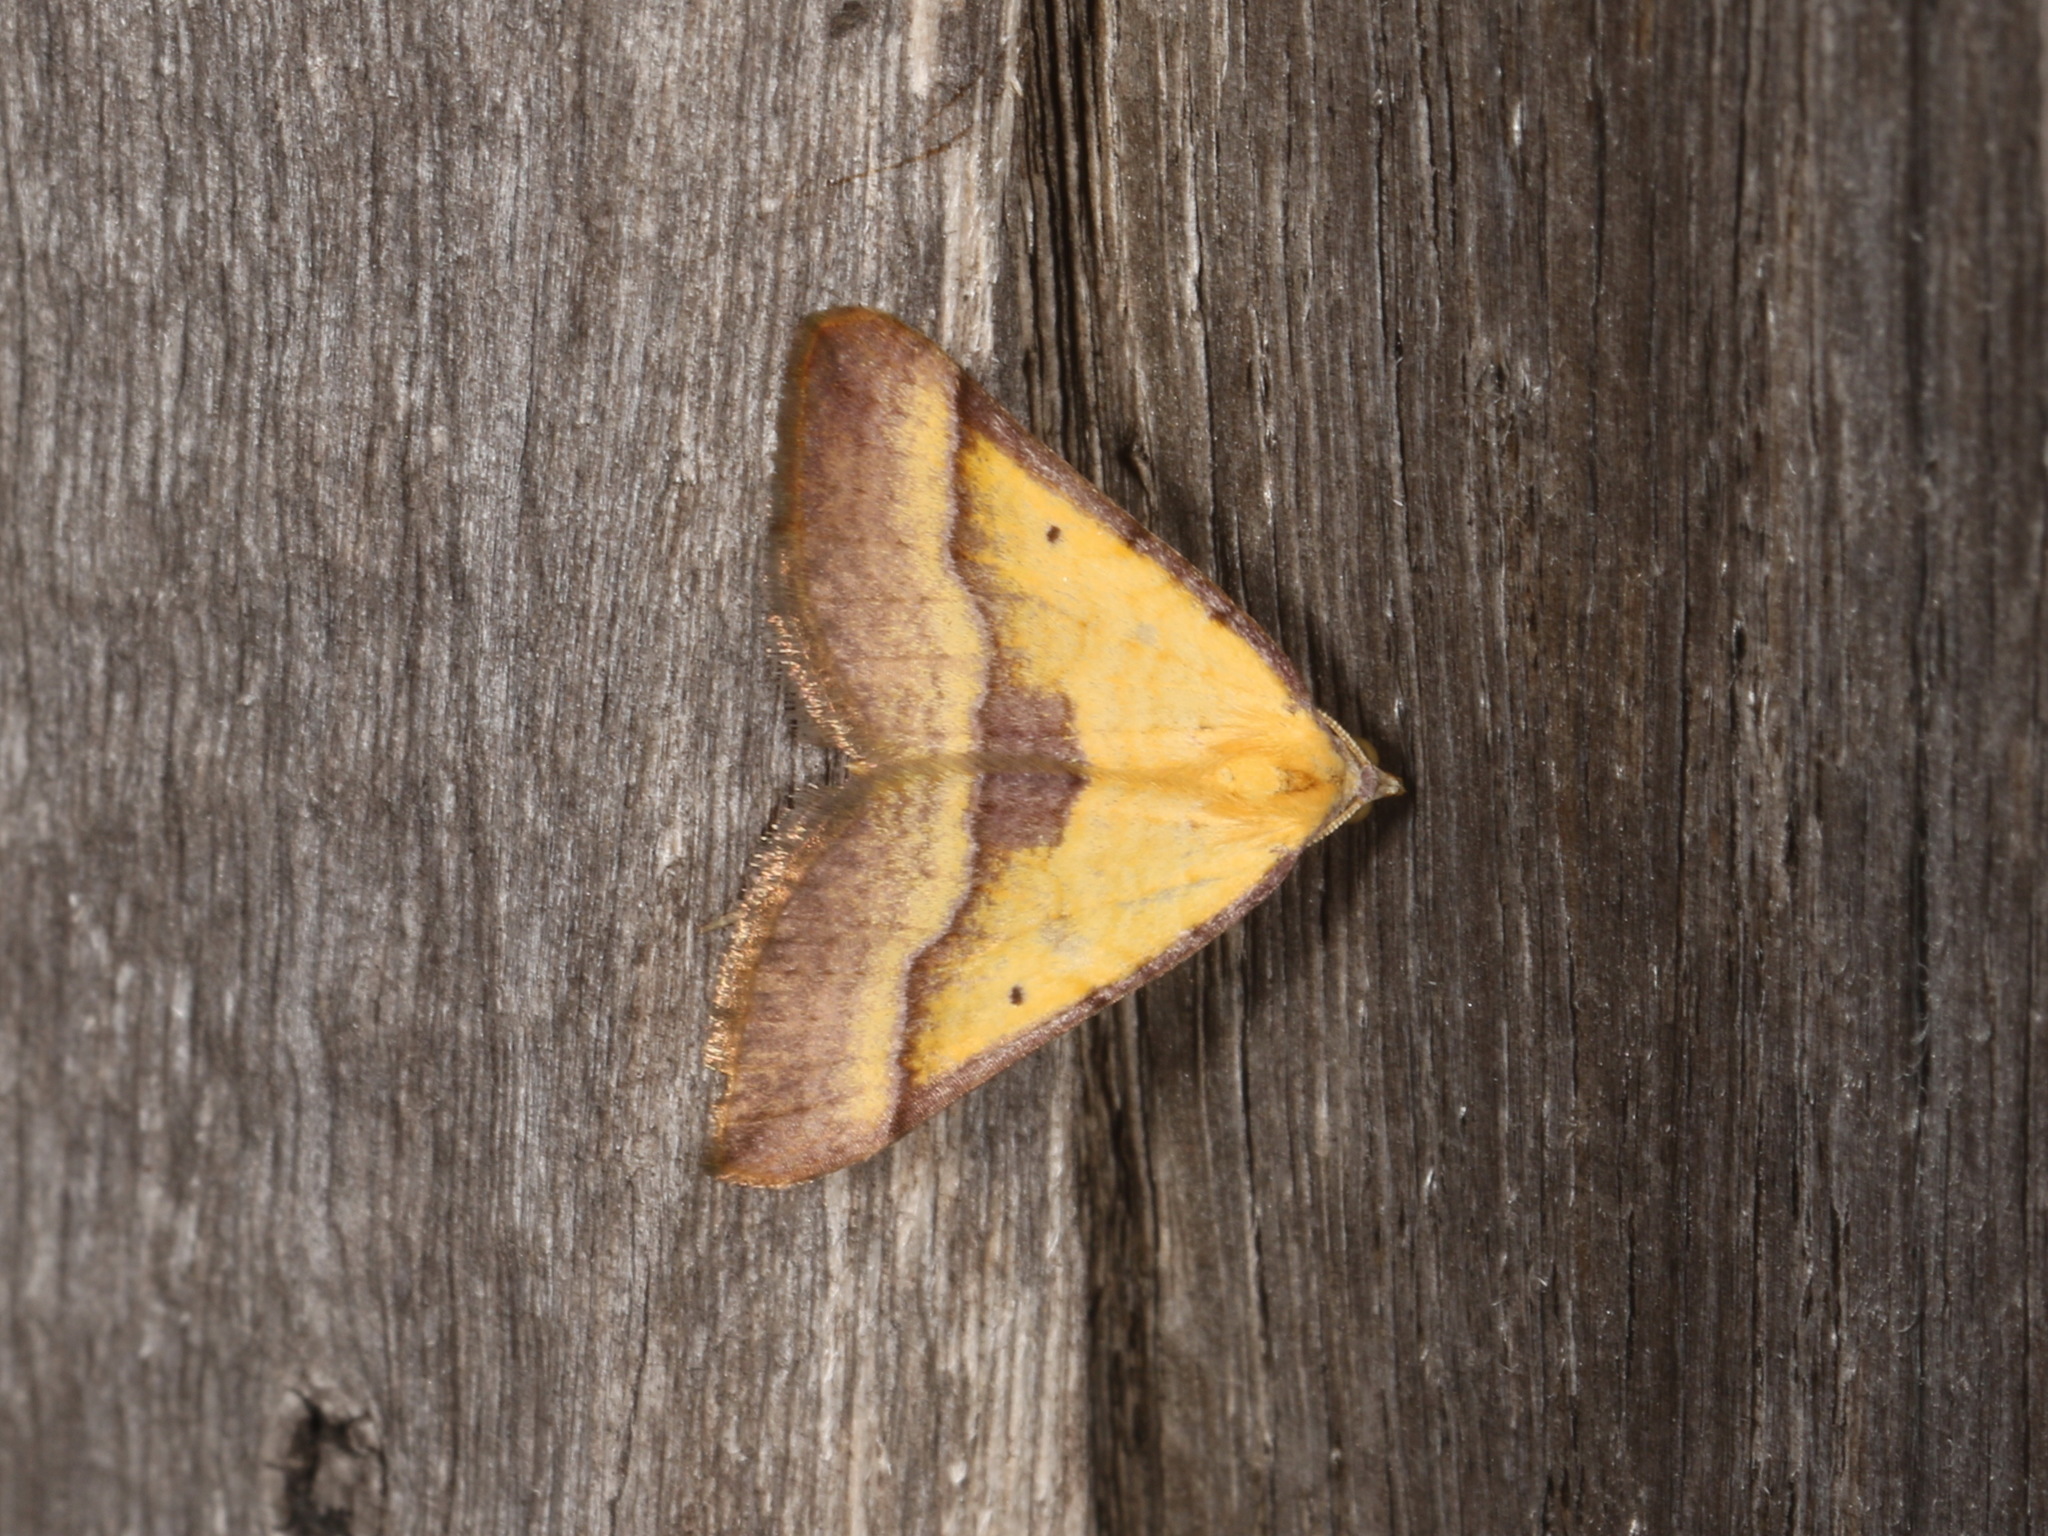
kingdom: Animalia
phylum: Arthropoda
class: Insecta
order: Lepidoptera
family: Geometridae
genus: Anachloris
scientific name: Anachloris subochraria
